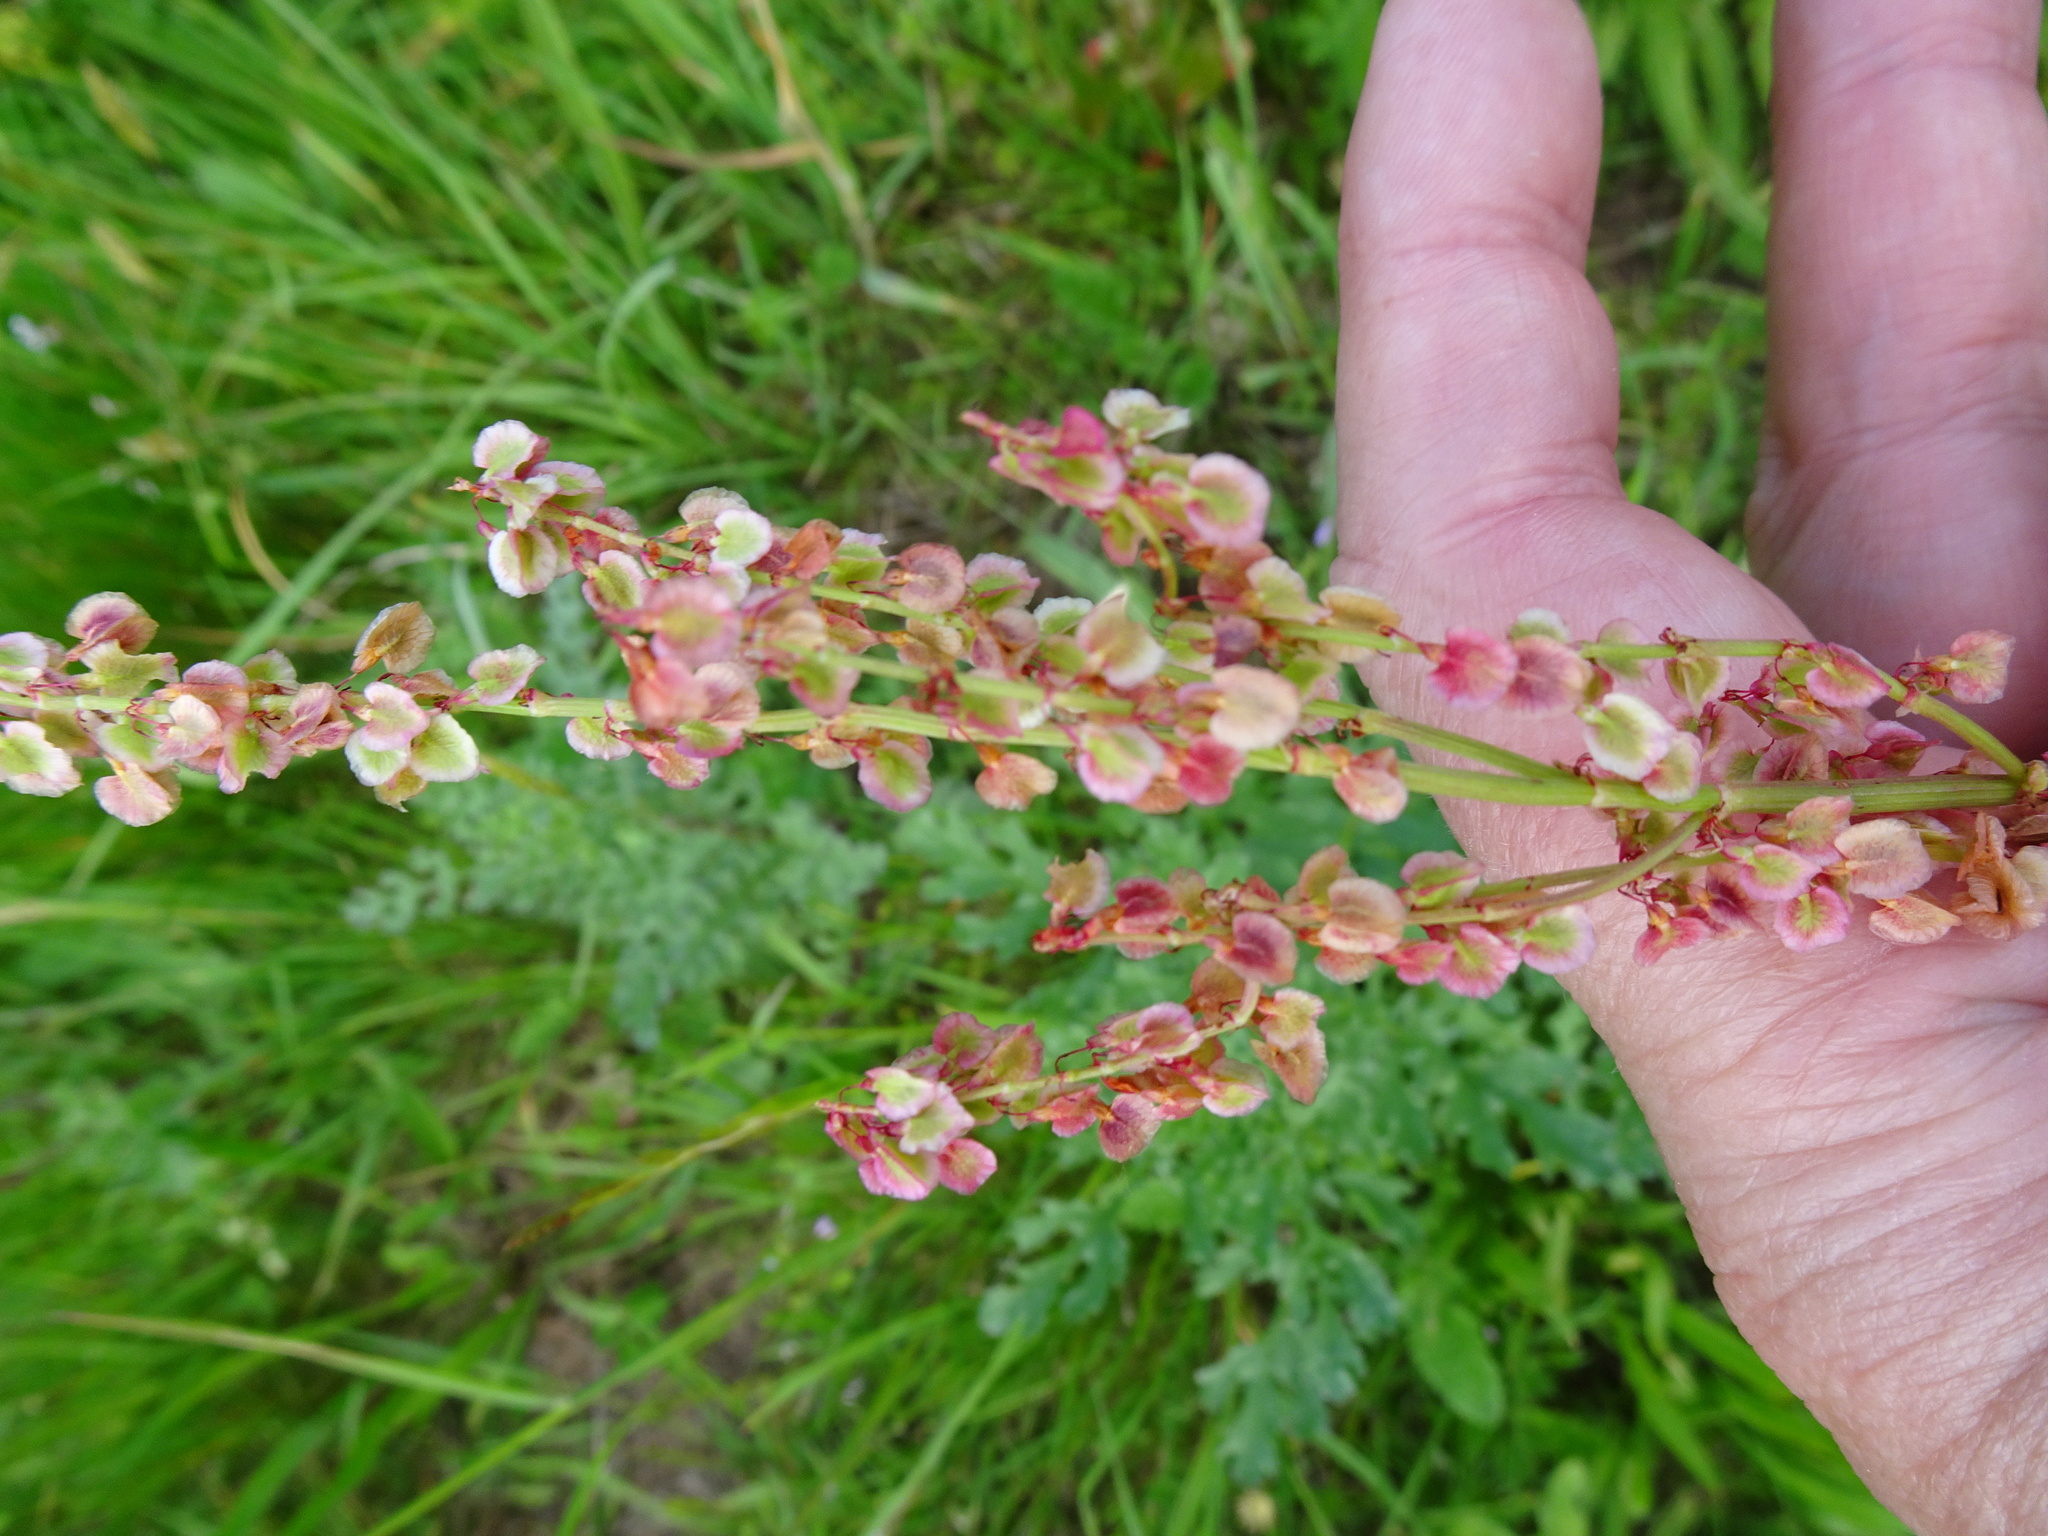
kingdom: Plantae
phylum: Tracheophyta
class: Magnoliopsida
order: Caryophyllales
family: Polygonaceae
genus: Rumex
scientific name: Rumex acetosa
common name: Garden sorrel
